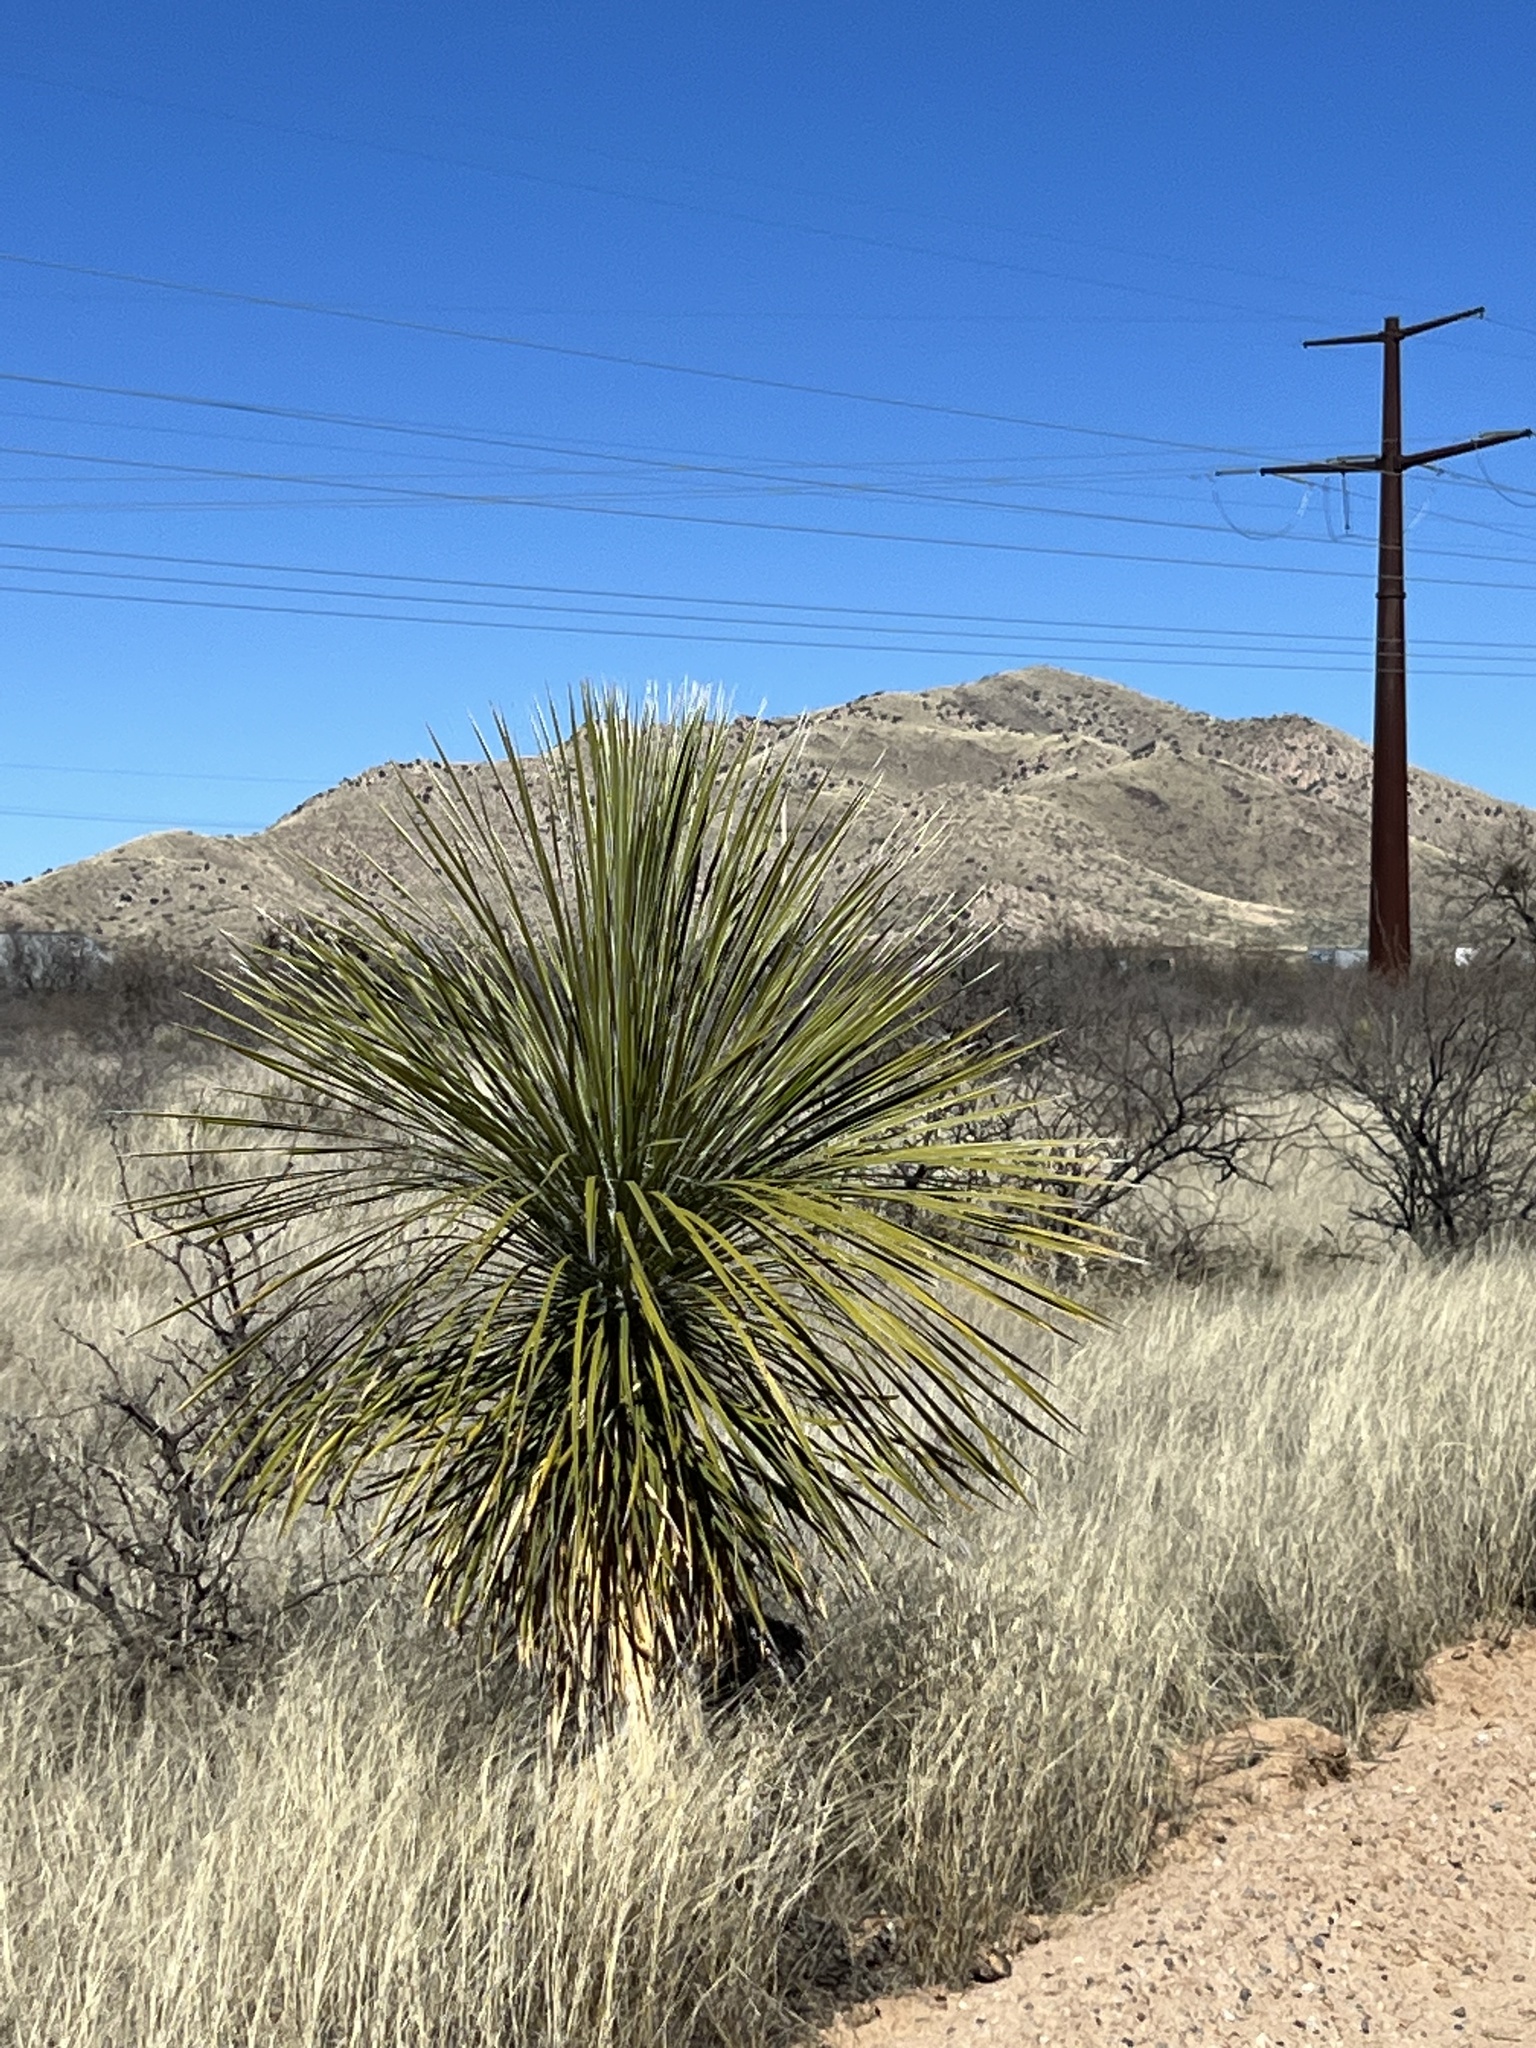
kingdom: Plantae
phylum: Tracheophyta
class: Liliopsida
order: Asparagales
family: Asparagaceae
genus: Yucca
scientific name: Yucca elata
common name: Palmella
